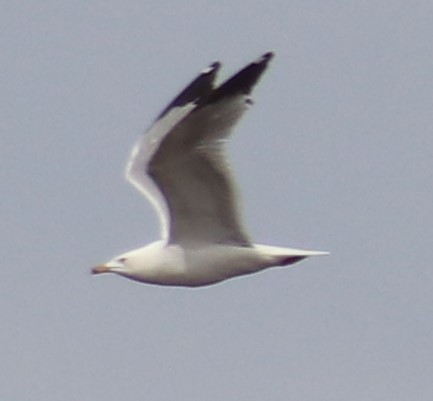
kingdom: Animalia
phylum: Chordata
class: Aves
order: Charadriiformes
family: Laridae
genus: Larus
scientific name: Larus delawarensis
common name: Ring-billed gull
